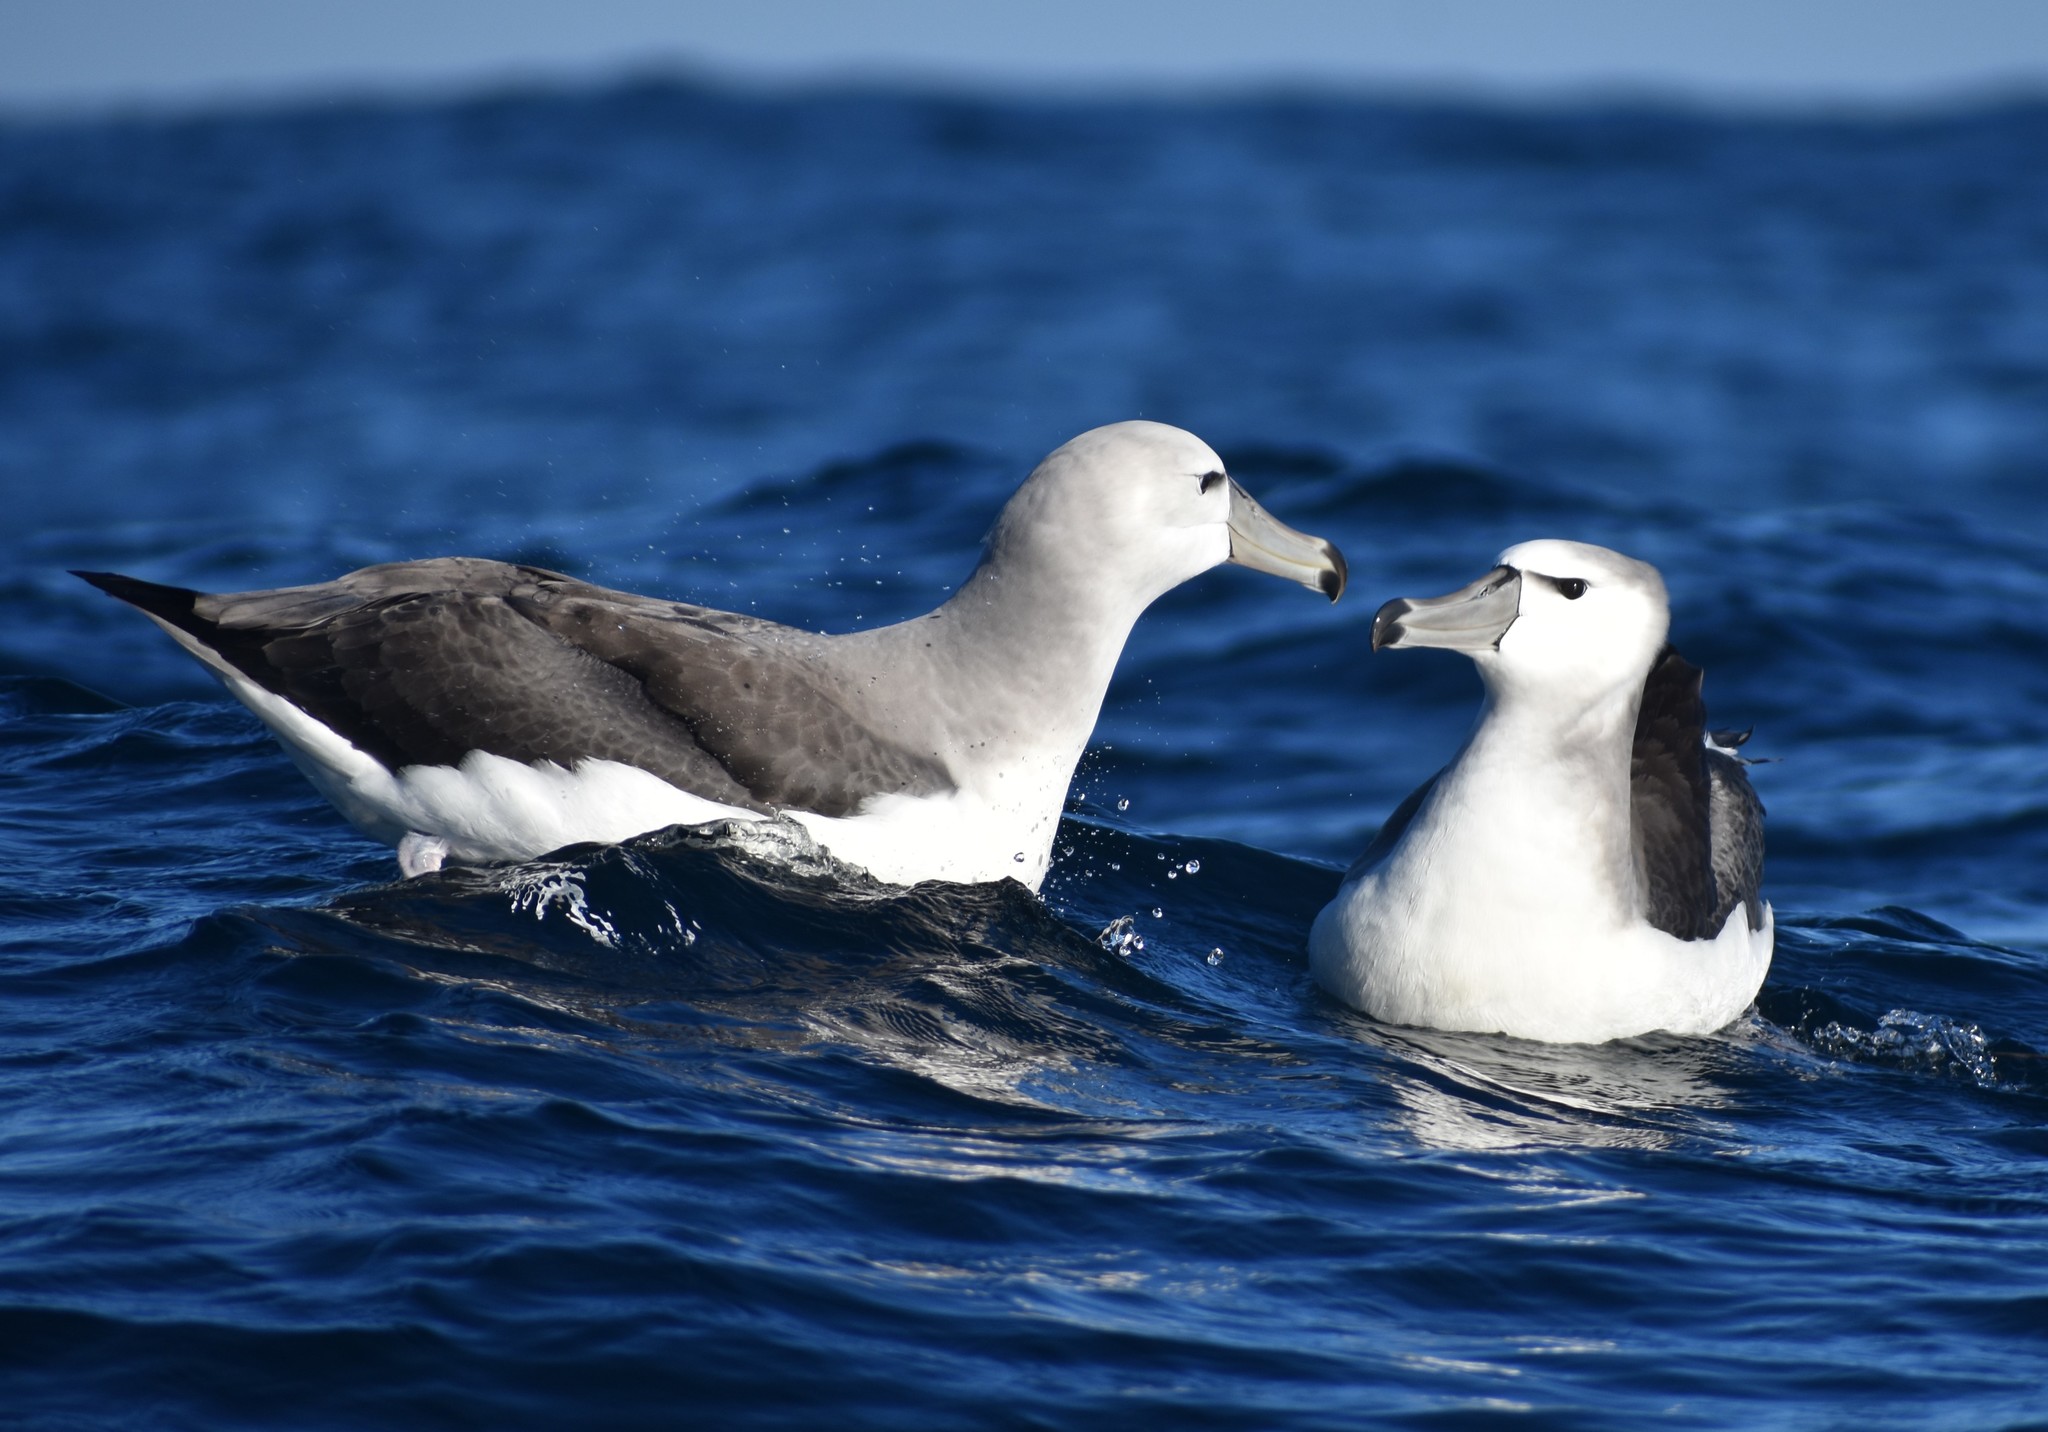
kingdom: Animalia
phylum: Chordata
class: Aves
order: Procellariiformes
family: Diomedeidae
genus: Thalassarche
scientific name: Thalassarche cauta
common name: Shy albatross
